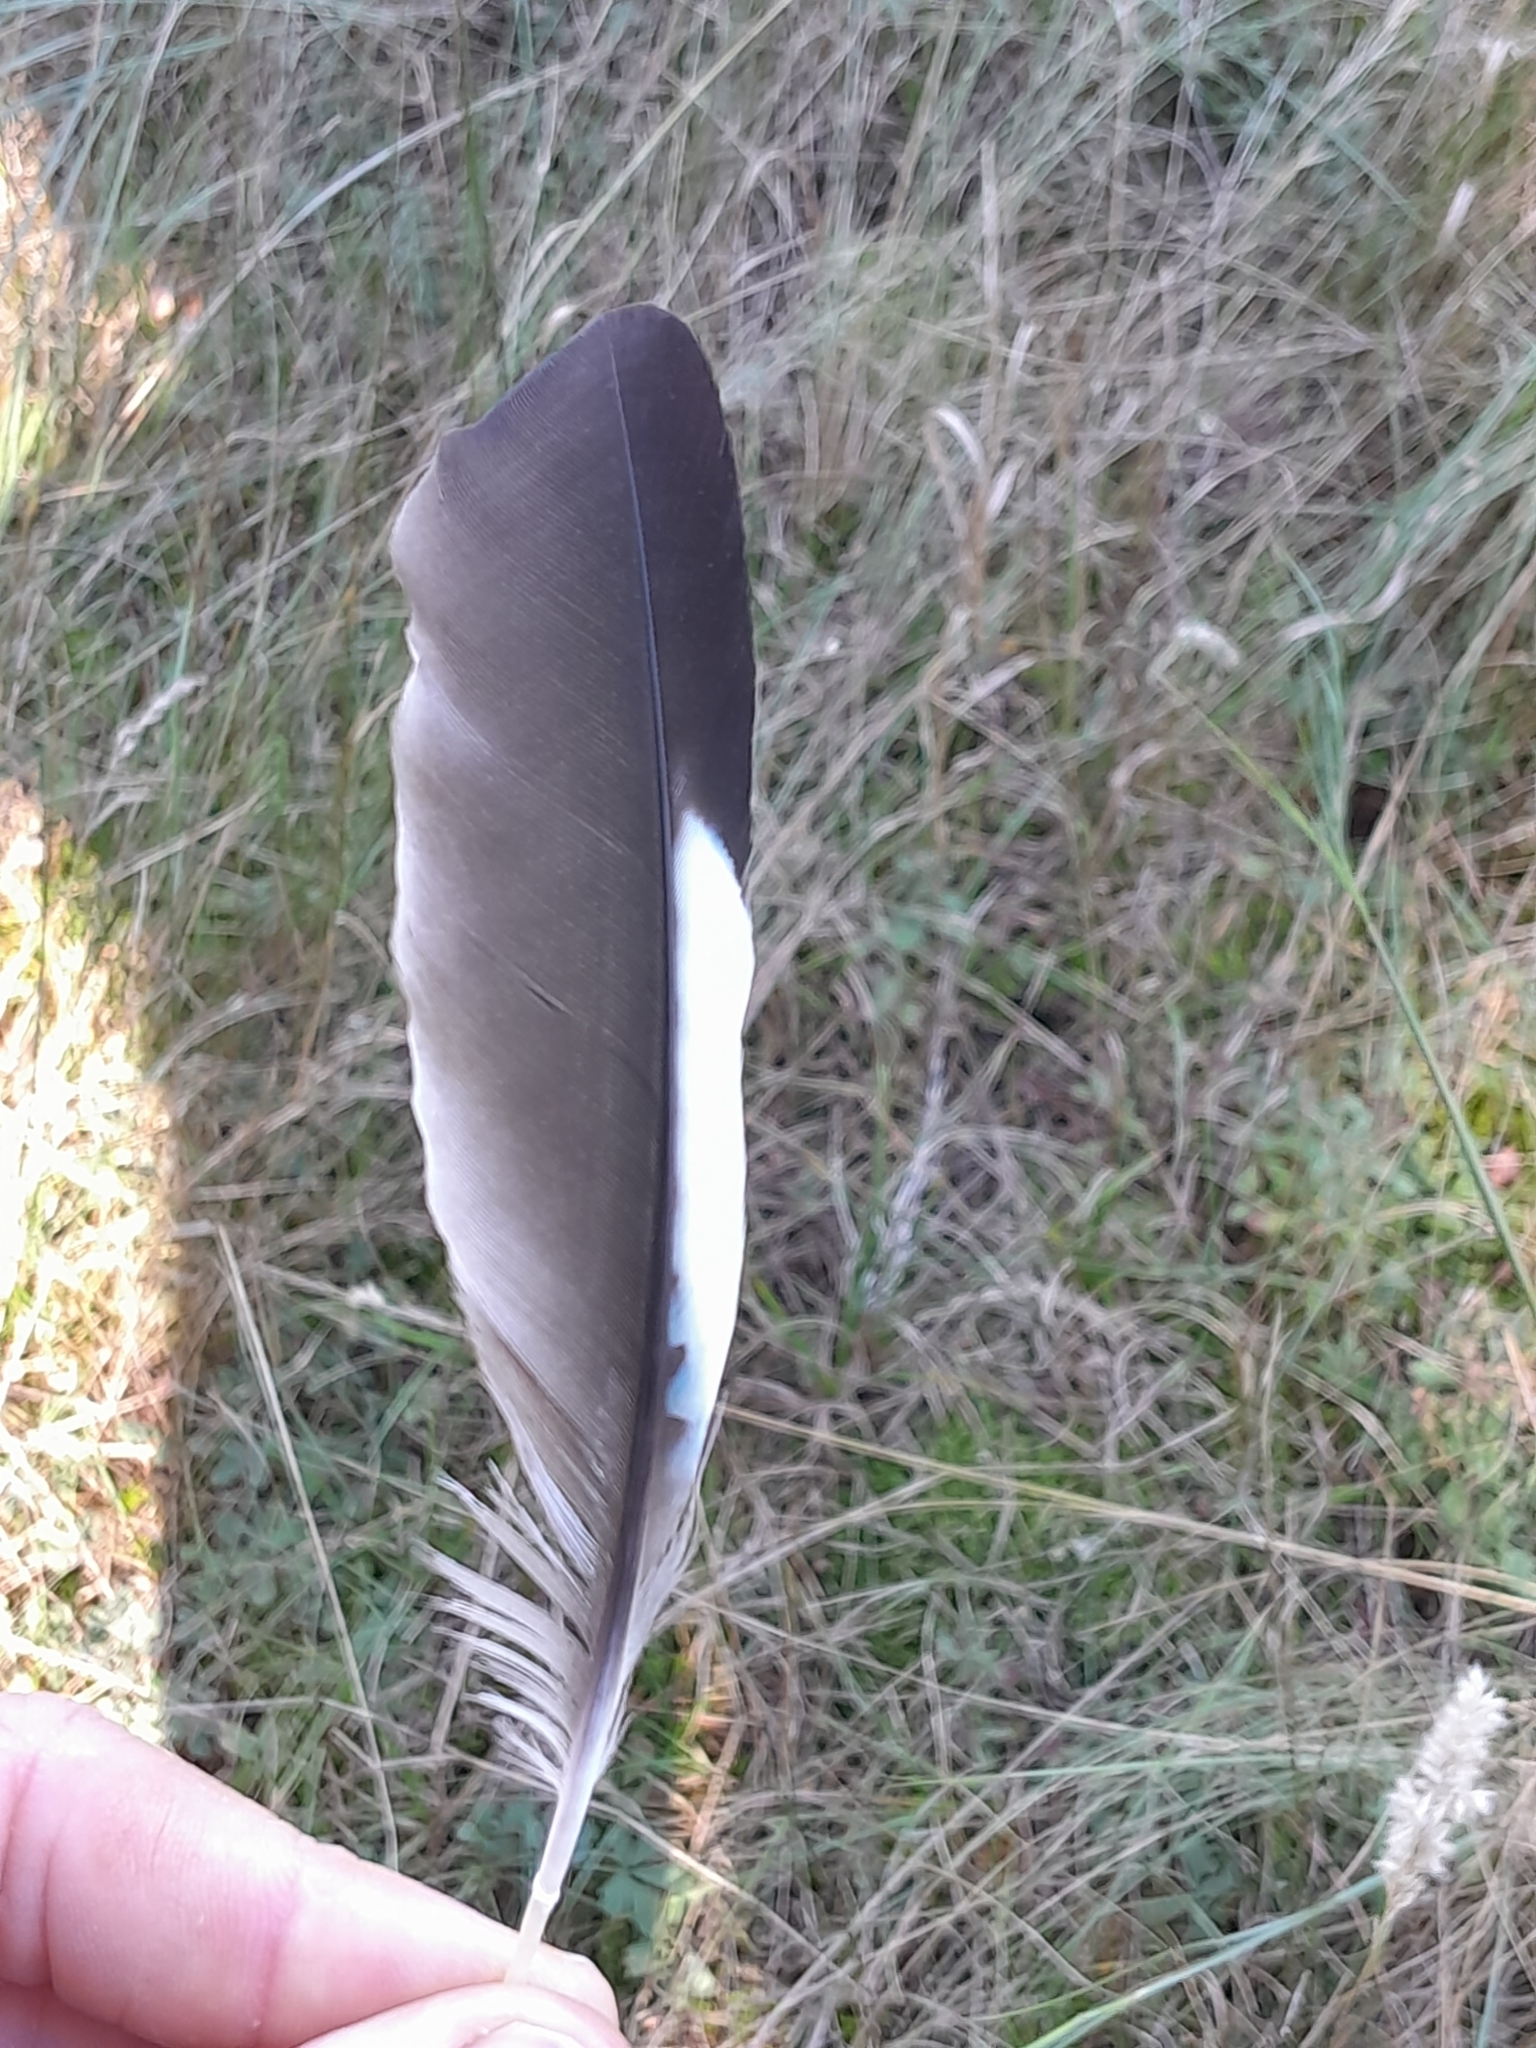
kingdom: Animalia
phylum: Chordata
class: Aves
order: Passeriformes
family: Corvidae
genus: Garrulus
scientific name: Garrulus glandarius
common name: Eurasian jay
